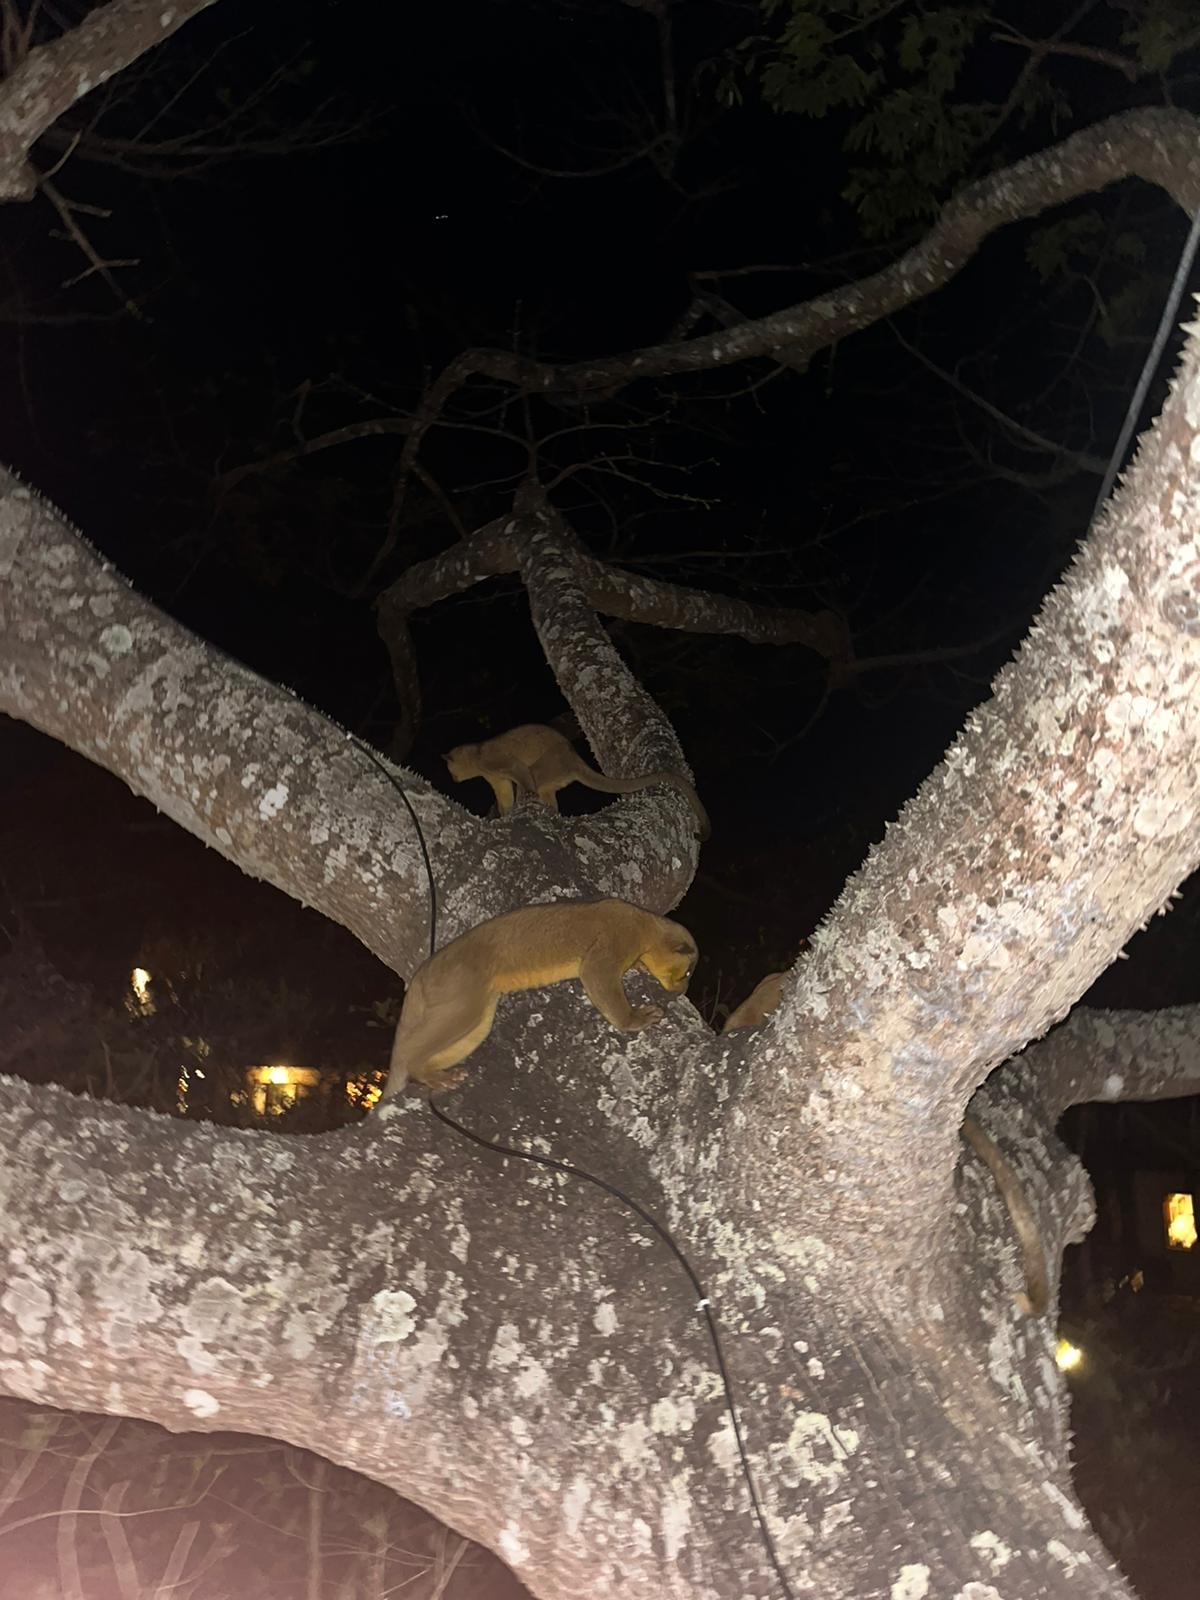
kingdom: Animalia
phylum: Chordata
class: Mammalia
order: Carnivora
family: Procyonidae
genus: Potos
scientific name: Potos flavus
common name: Kinkajou
